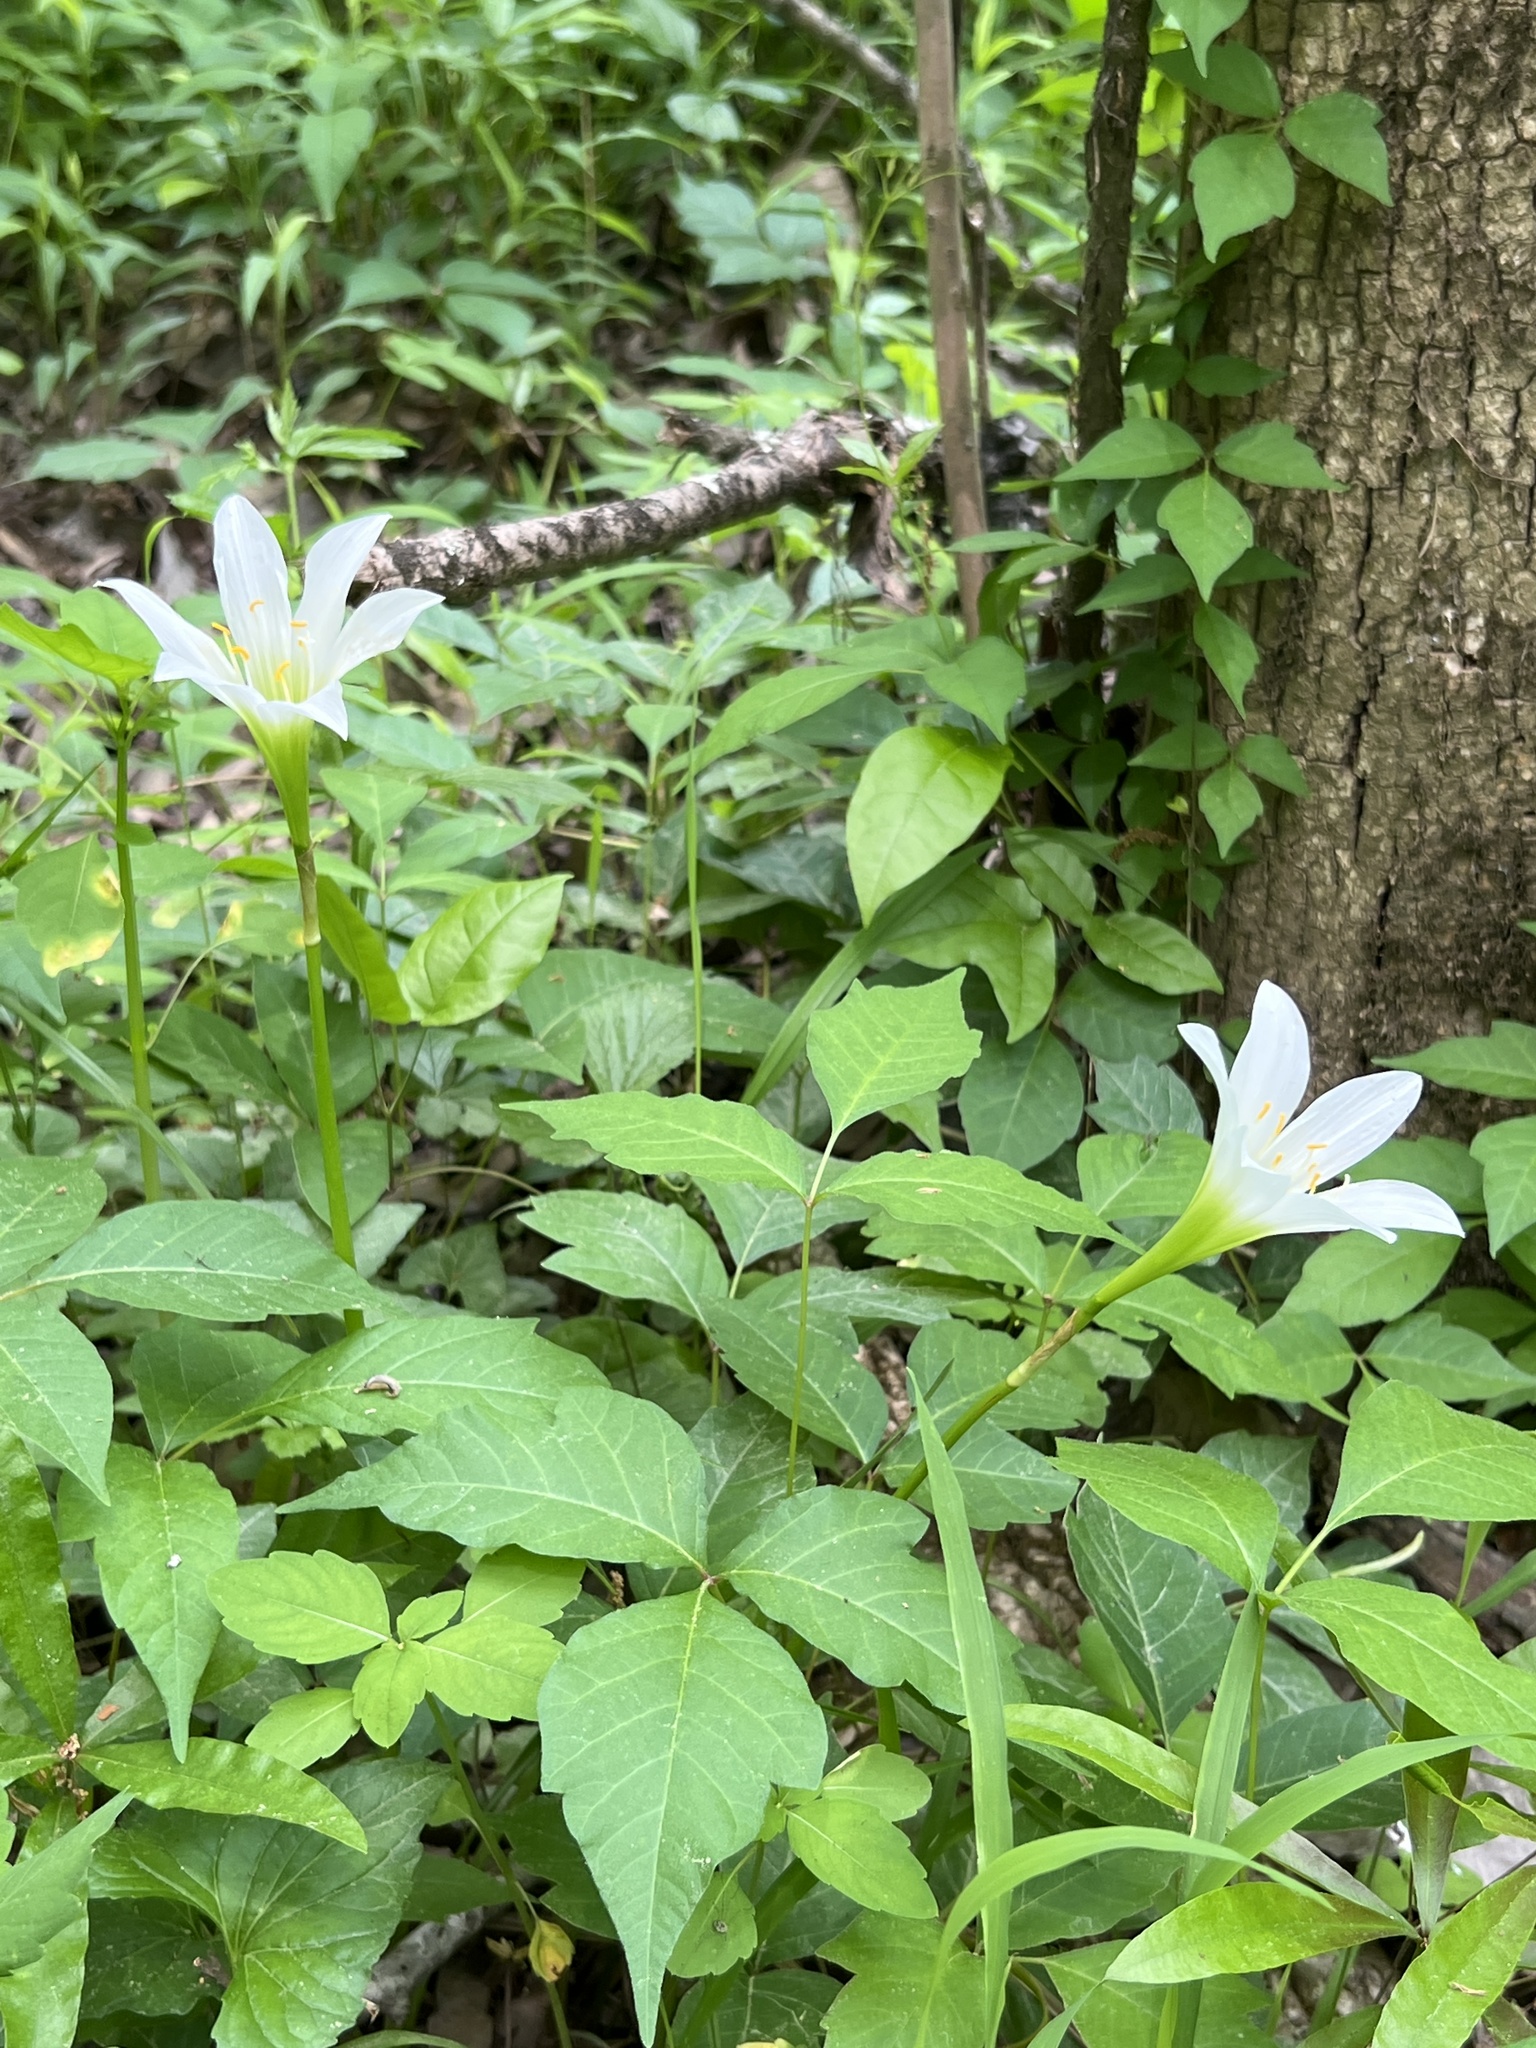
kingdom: Plantae
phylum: Tracheophyta
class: Liliopsida
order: Asparagales
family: Amaryllidaceae
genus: Zephyranthes
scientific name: Zephyranthes atamasco
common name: Atamasco lily
